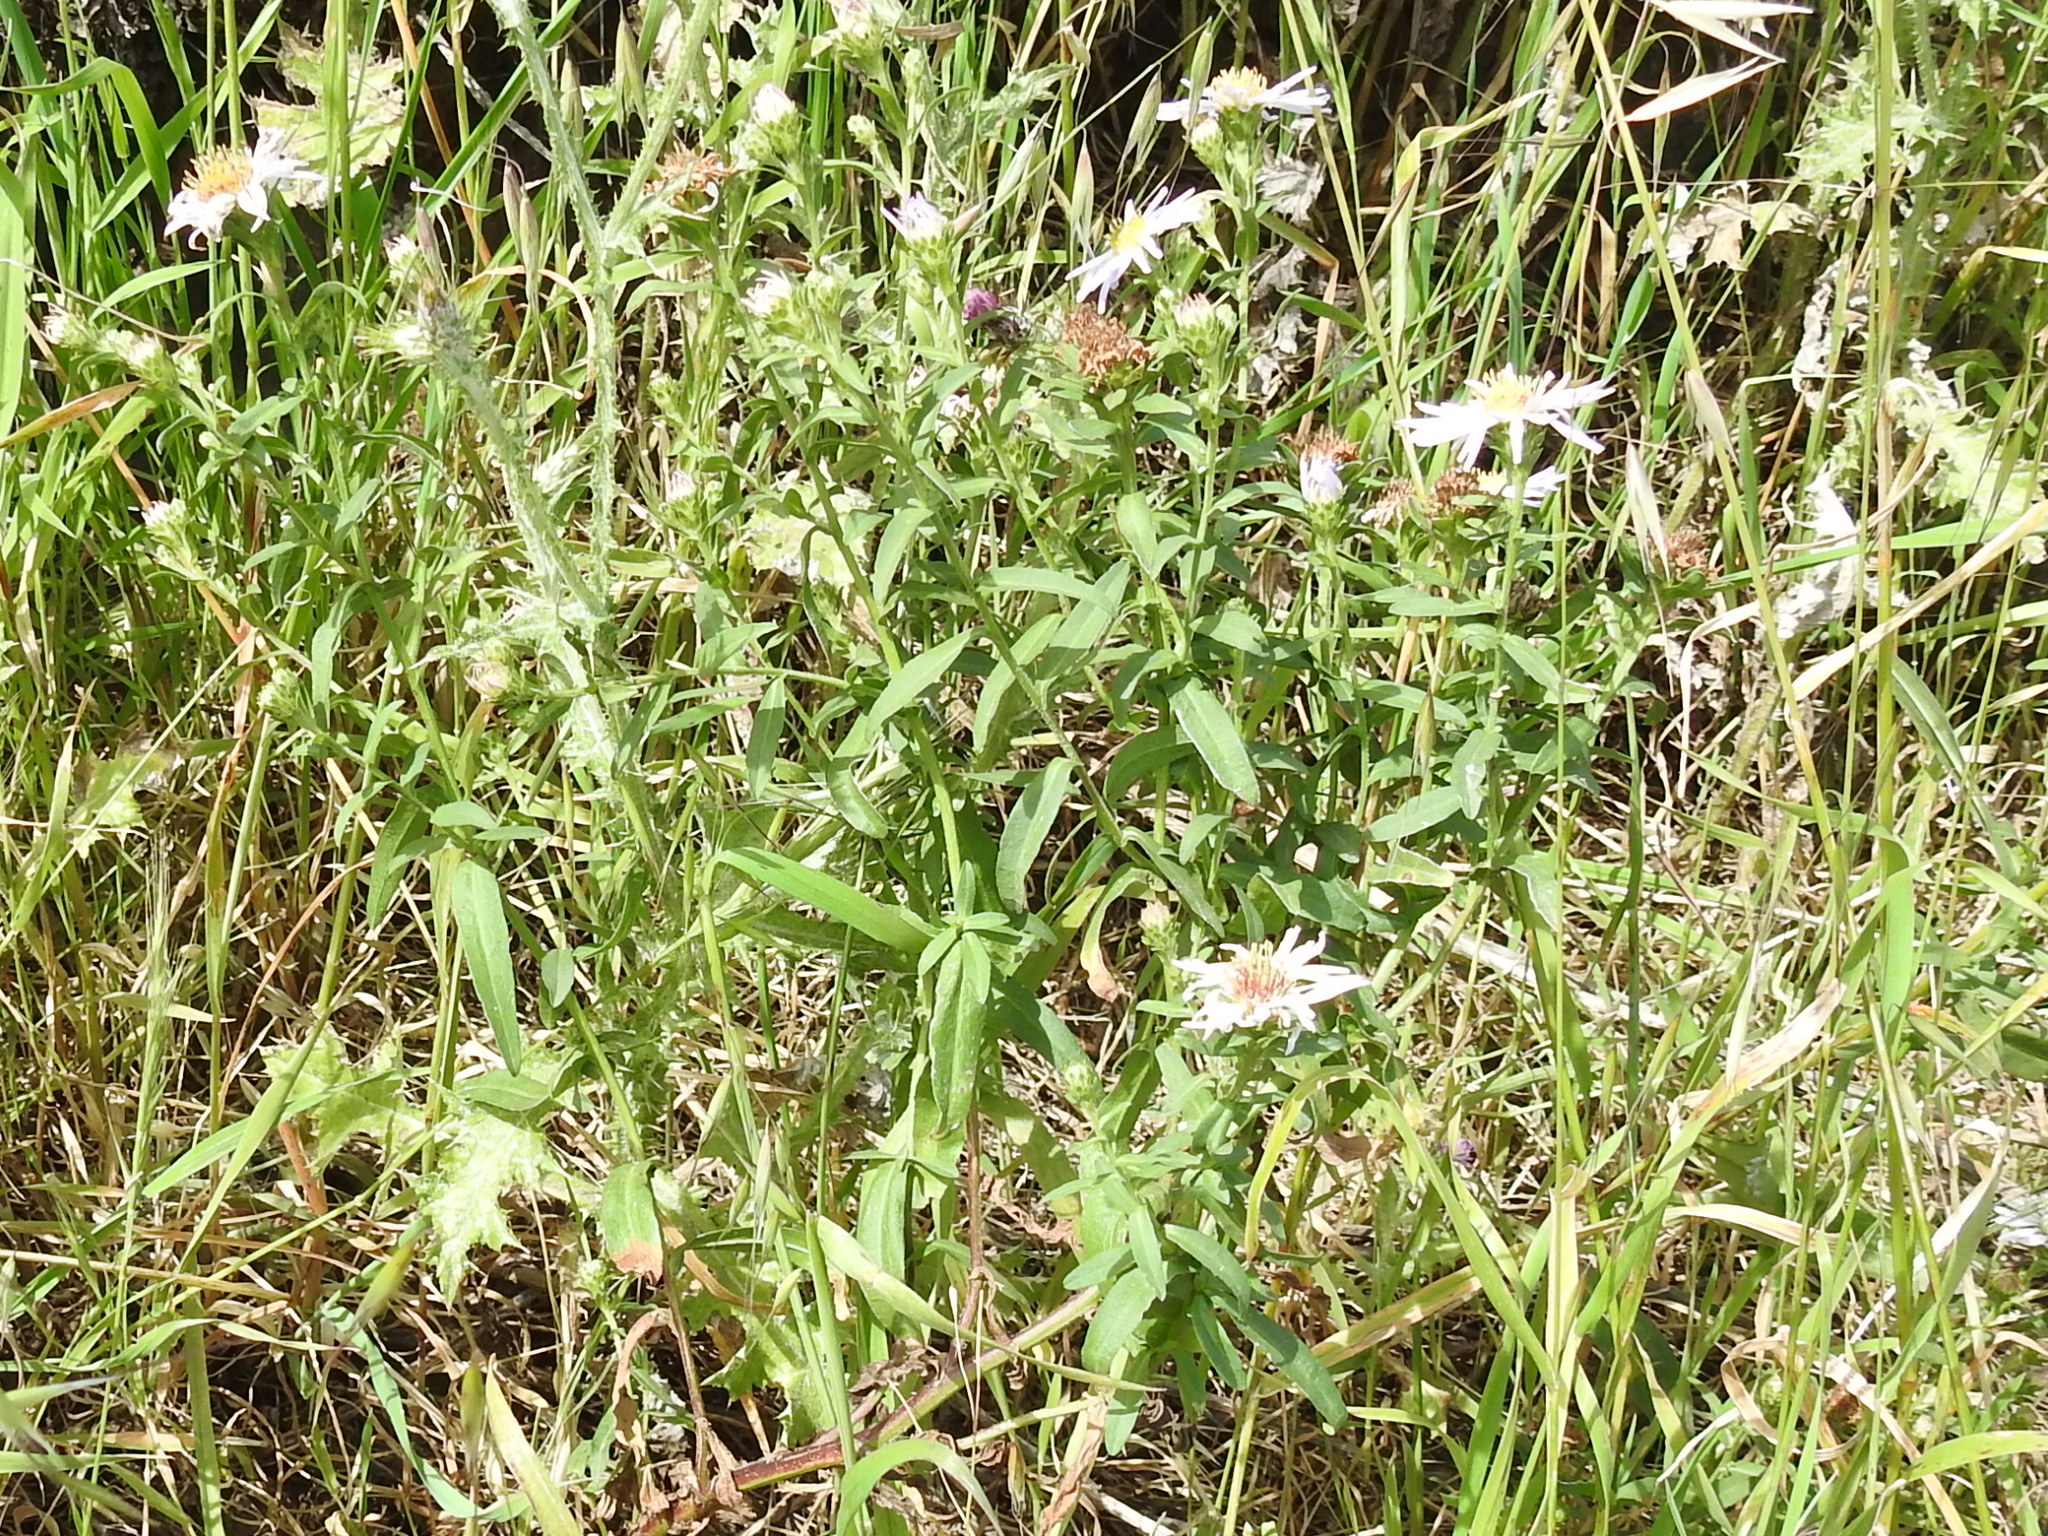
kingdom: Plantae
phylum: Tracheophyta
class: Magnoliopsida
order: Asterales
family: Asteraceae
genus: Symphyotrichum
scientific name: Symphyotrichum chilense
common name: Pacific aster
